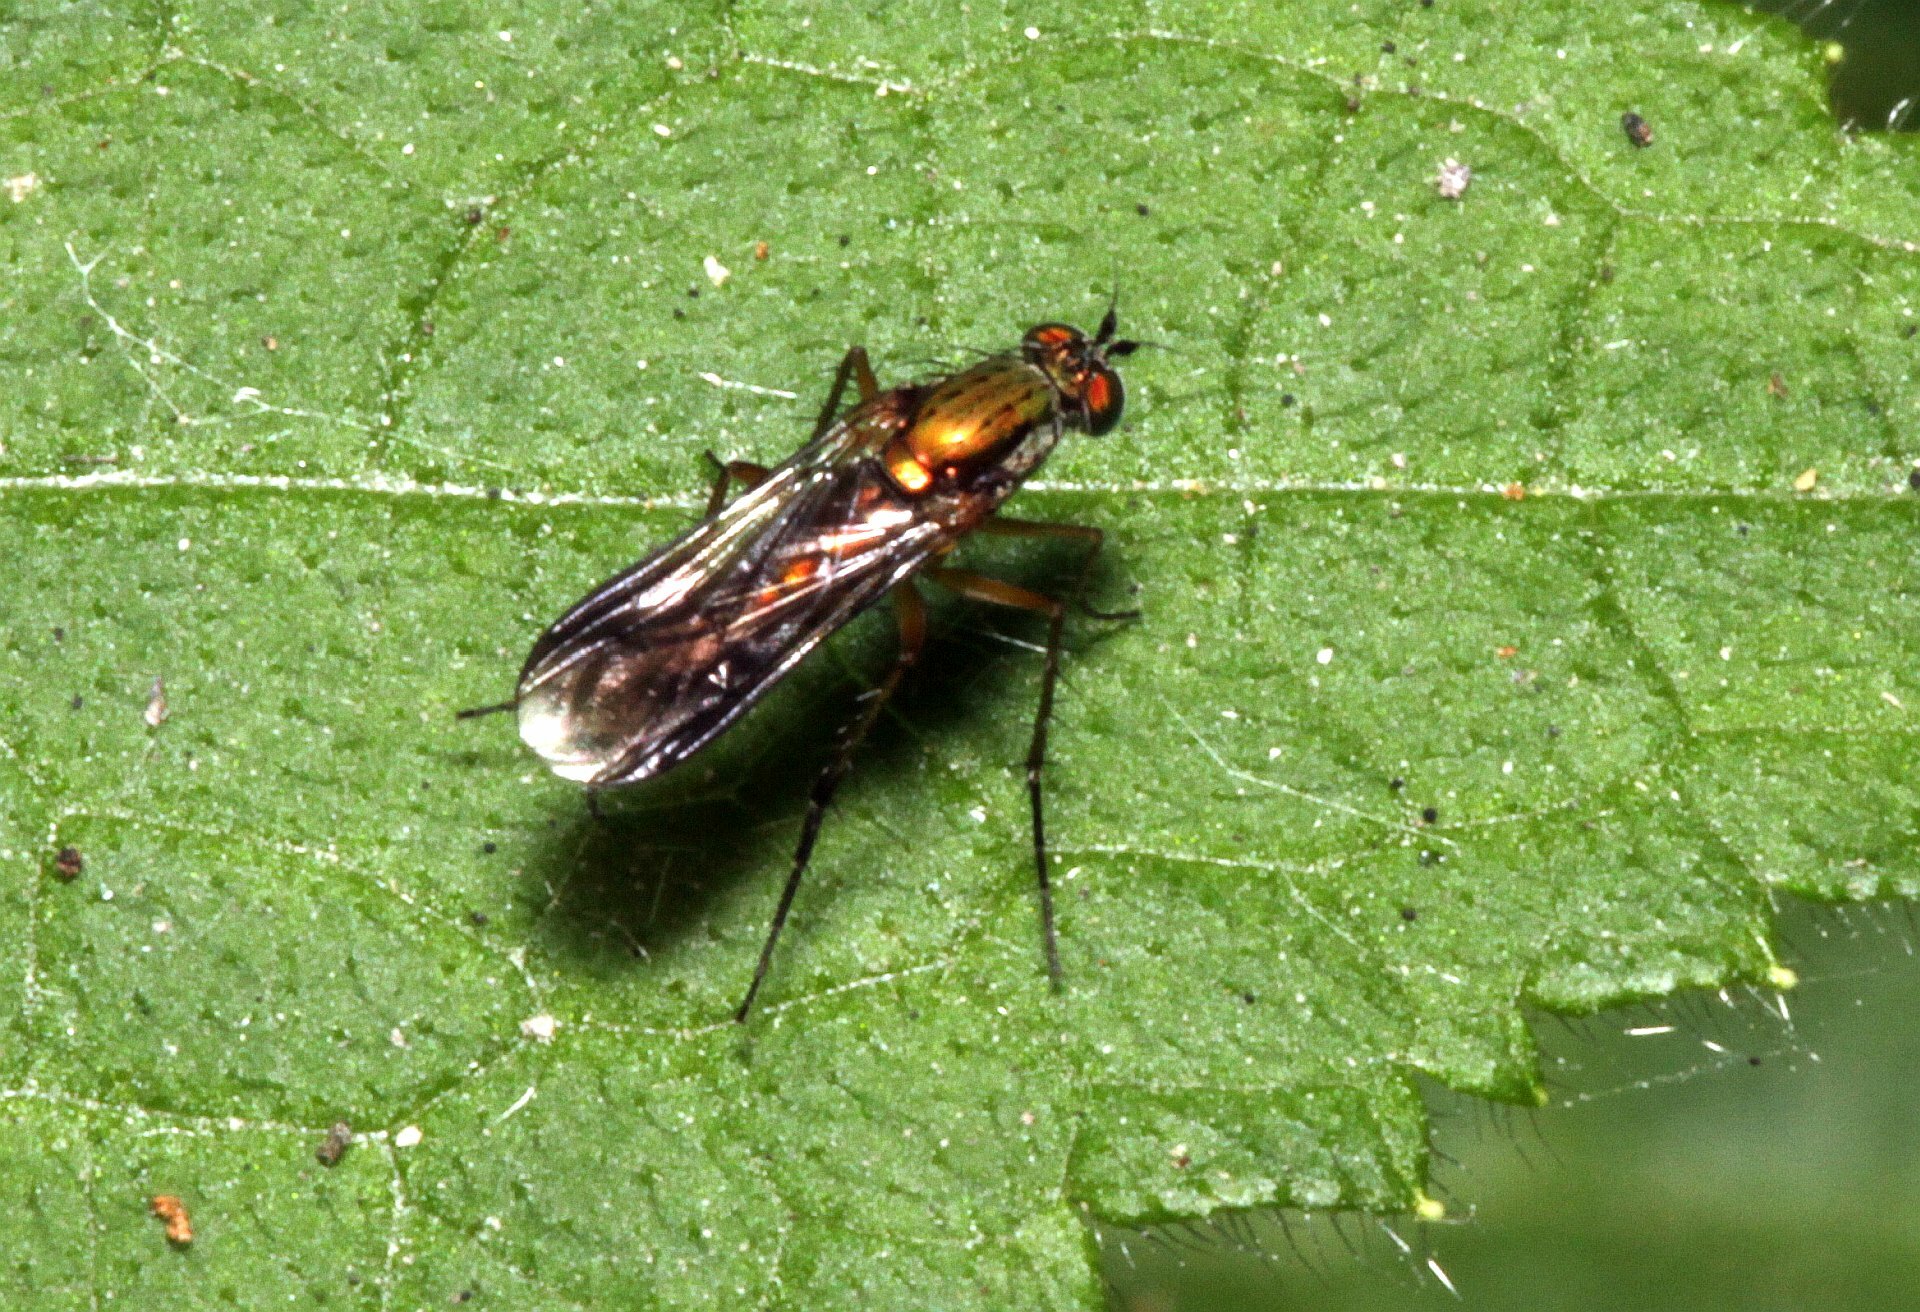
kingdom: Animalia
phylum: Arthropoda
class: Insecta
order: Diptera
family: Dolichopodidae
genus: Poecilobothrus
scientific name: Poecilobothrus nobilitatus
